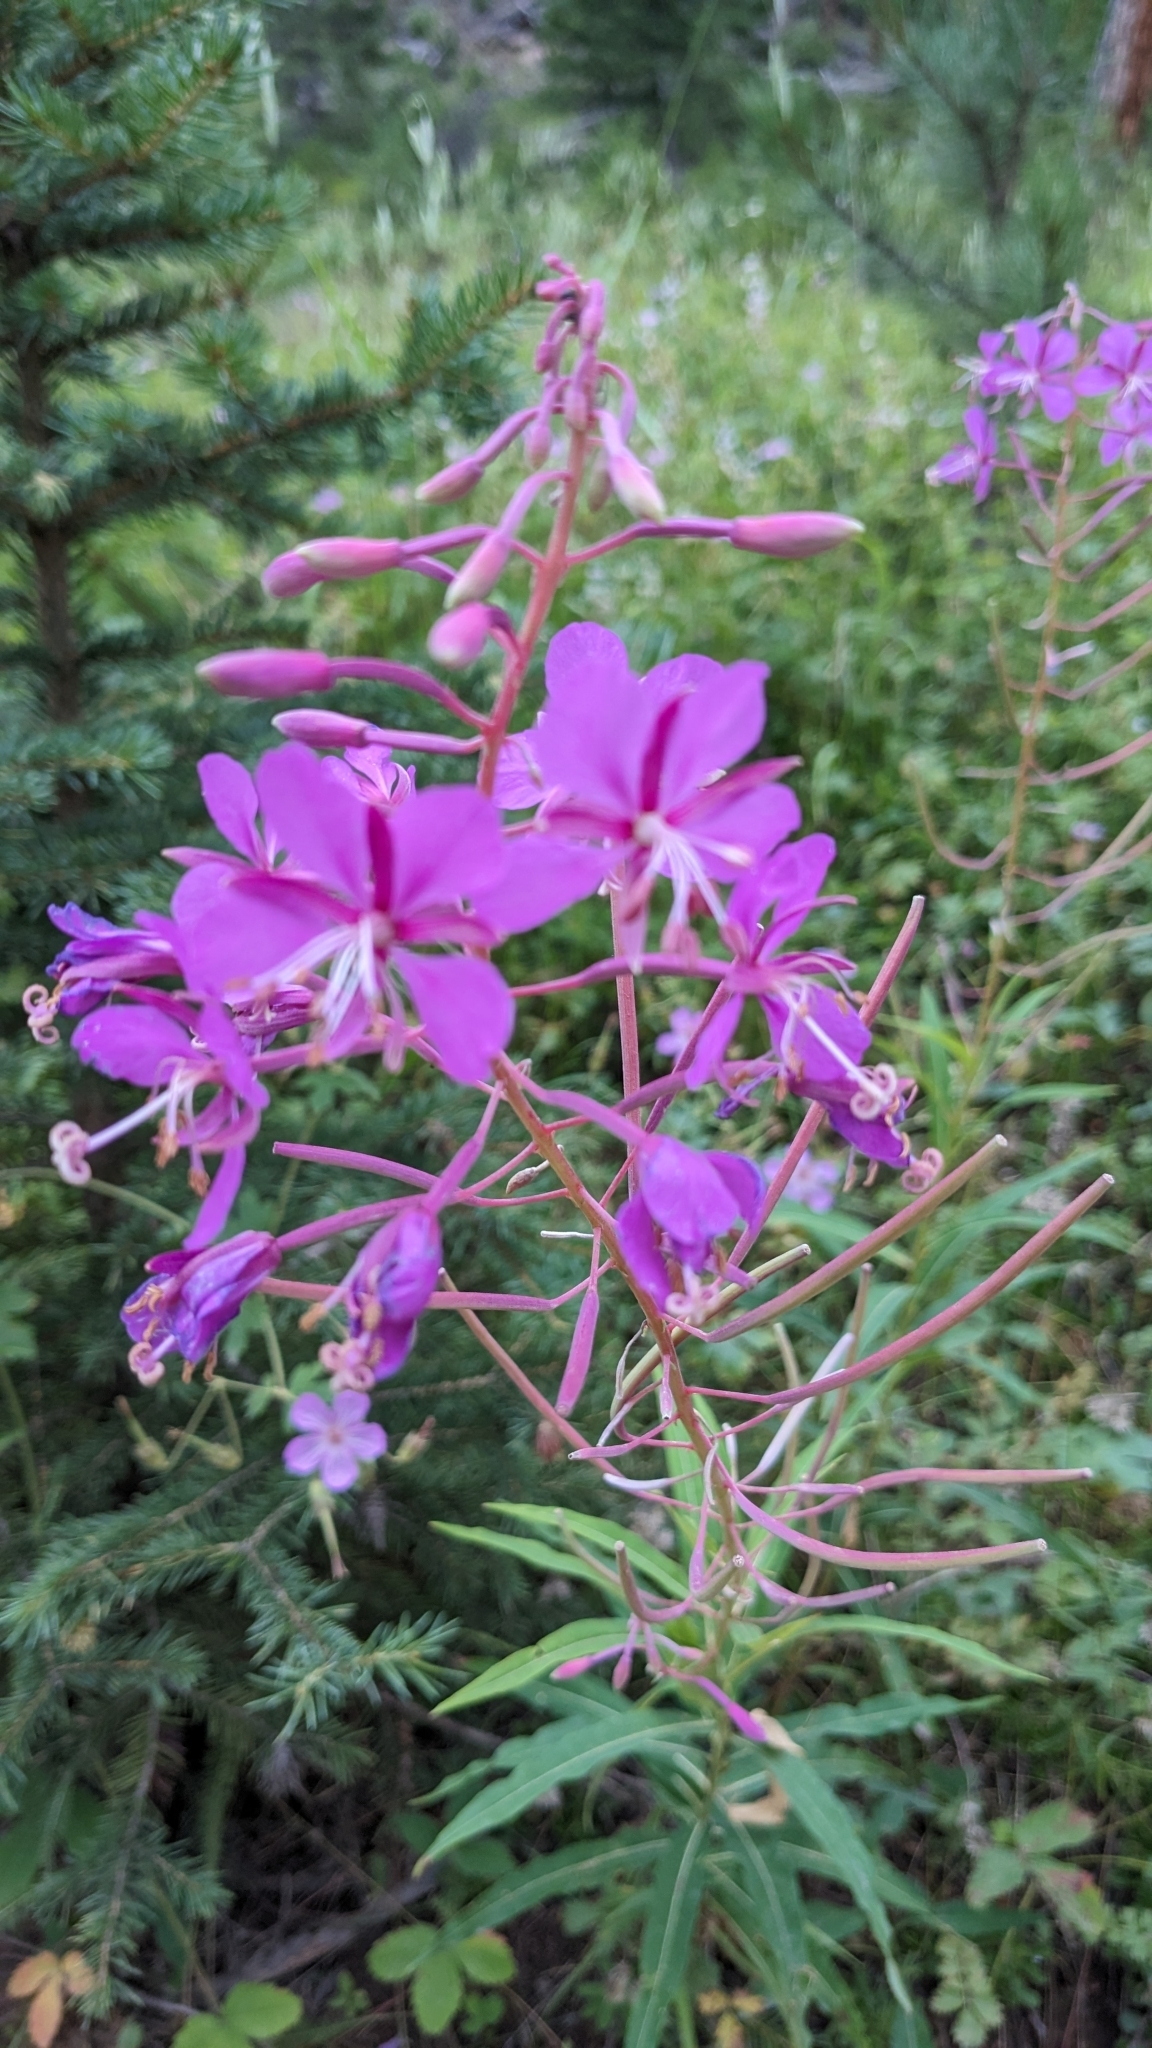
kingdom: Plantae
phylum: Tracheophyta
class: Magnoliopsida
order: Myrtales
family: Onagraceae
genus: Chamaenerion
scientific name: Chamaenerion angustifolium
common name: Fireweed
